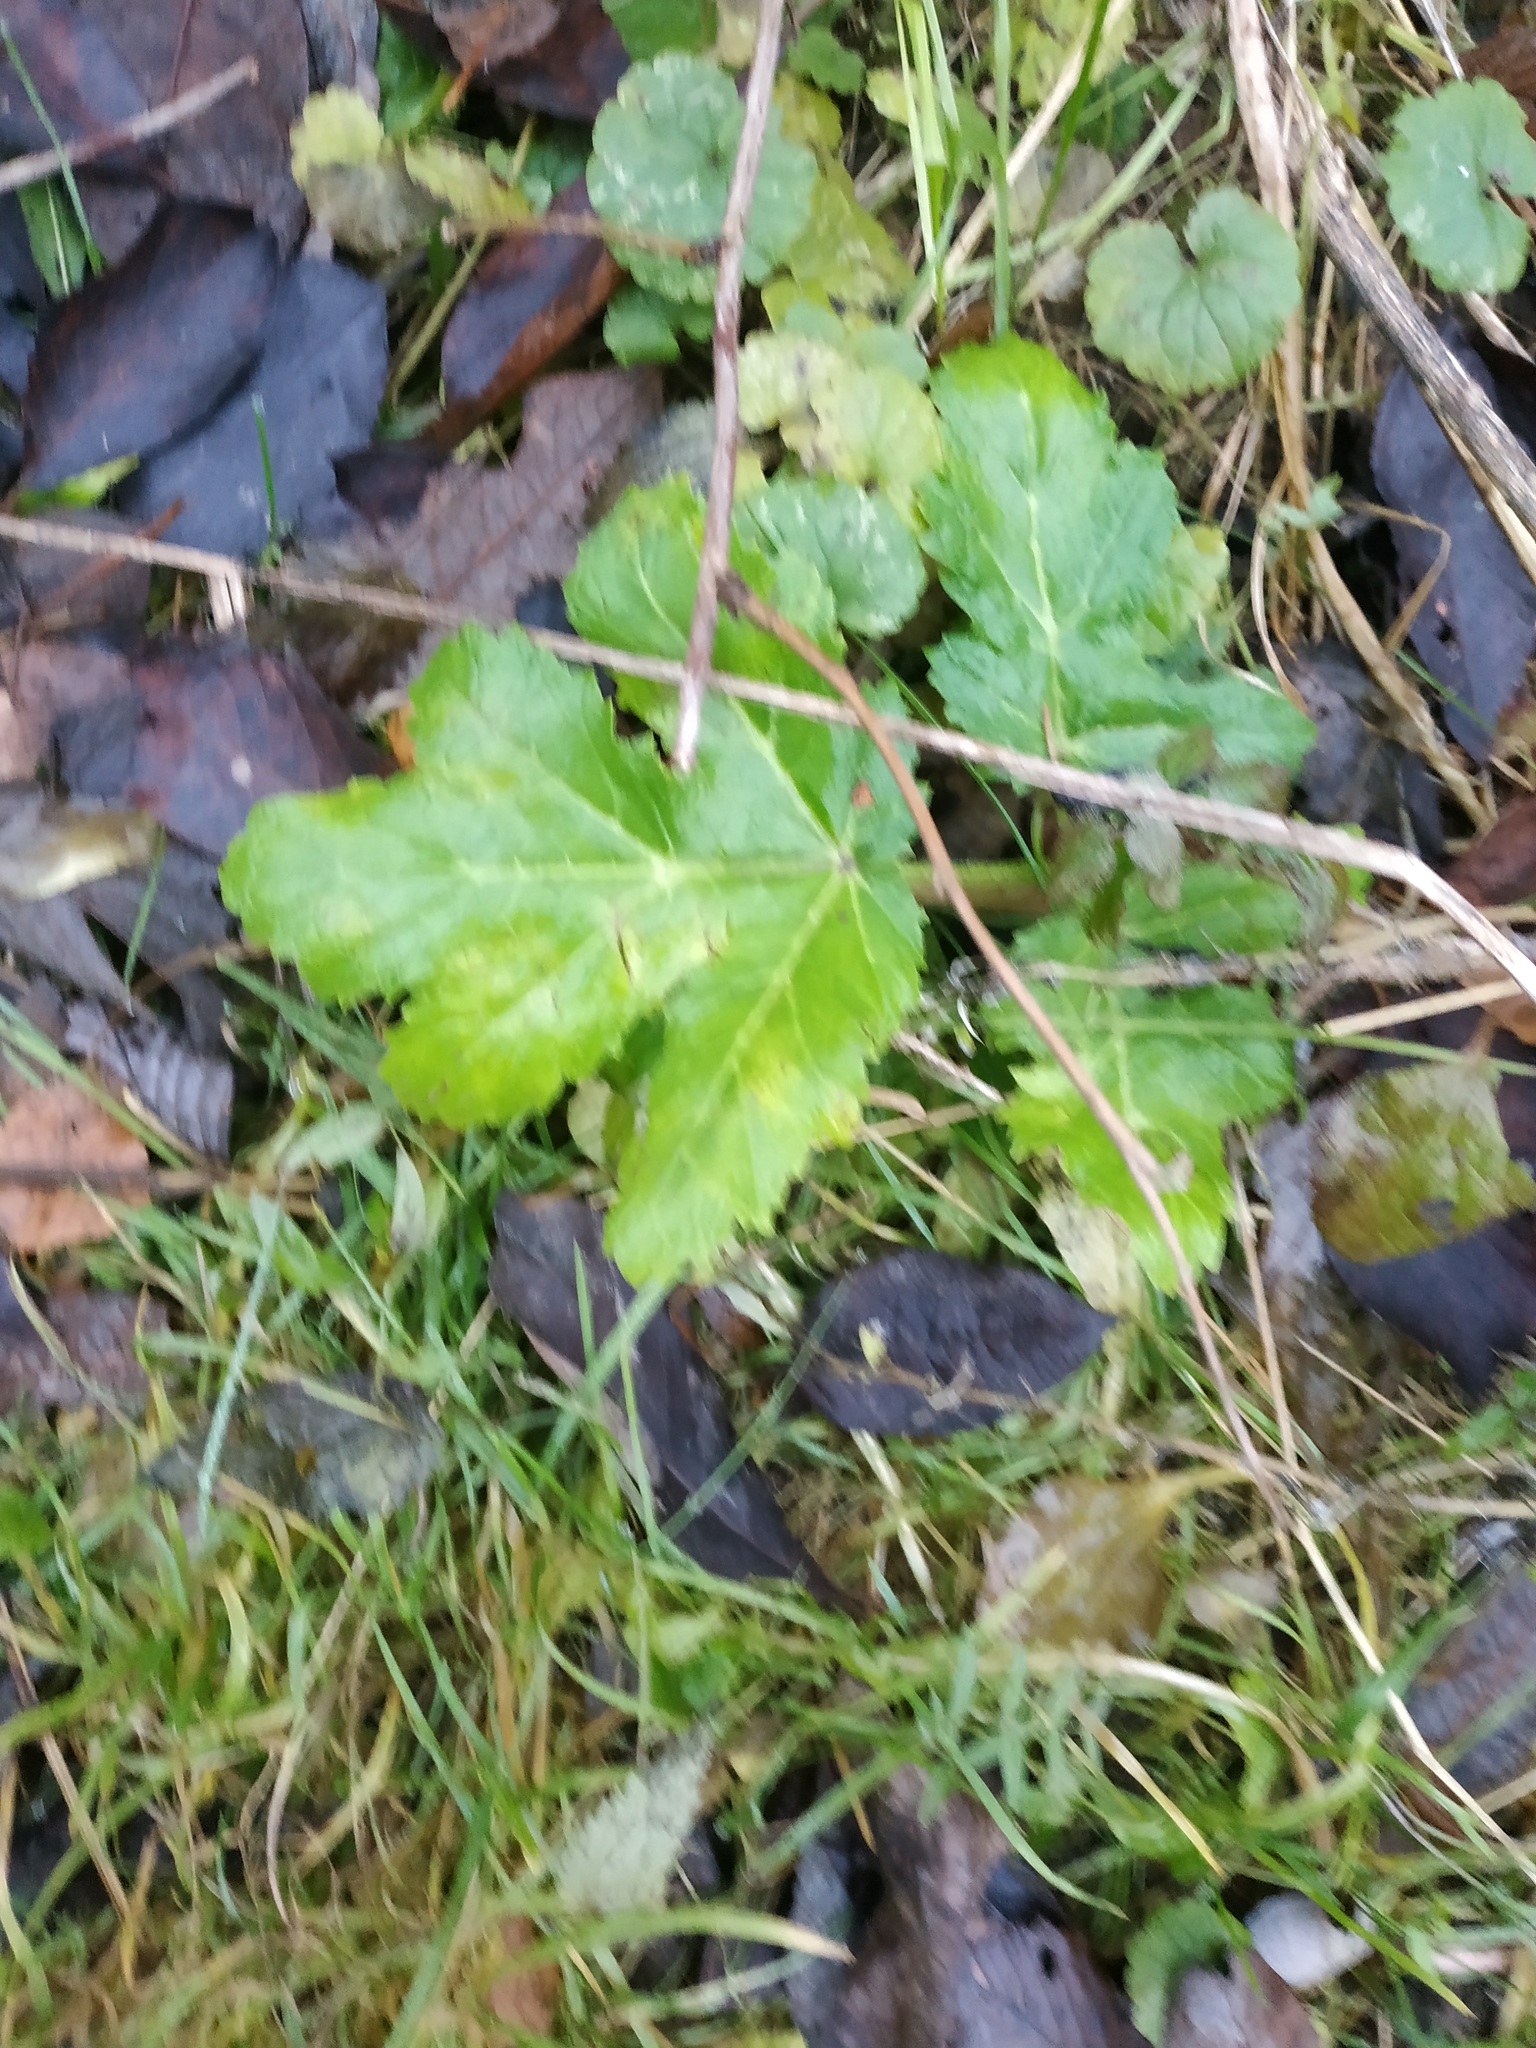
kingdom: Plantae
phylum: Tracheophyta
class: Magnoliopsida
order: Apiales
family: Apiaceae
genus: Heracleum
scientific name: Heracleum sosnowskyi
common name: Sosnowsky's hogweed
